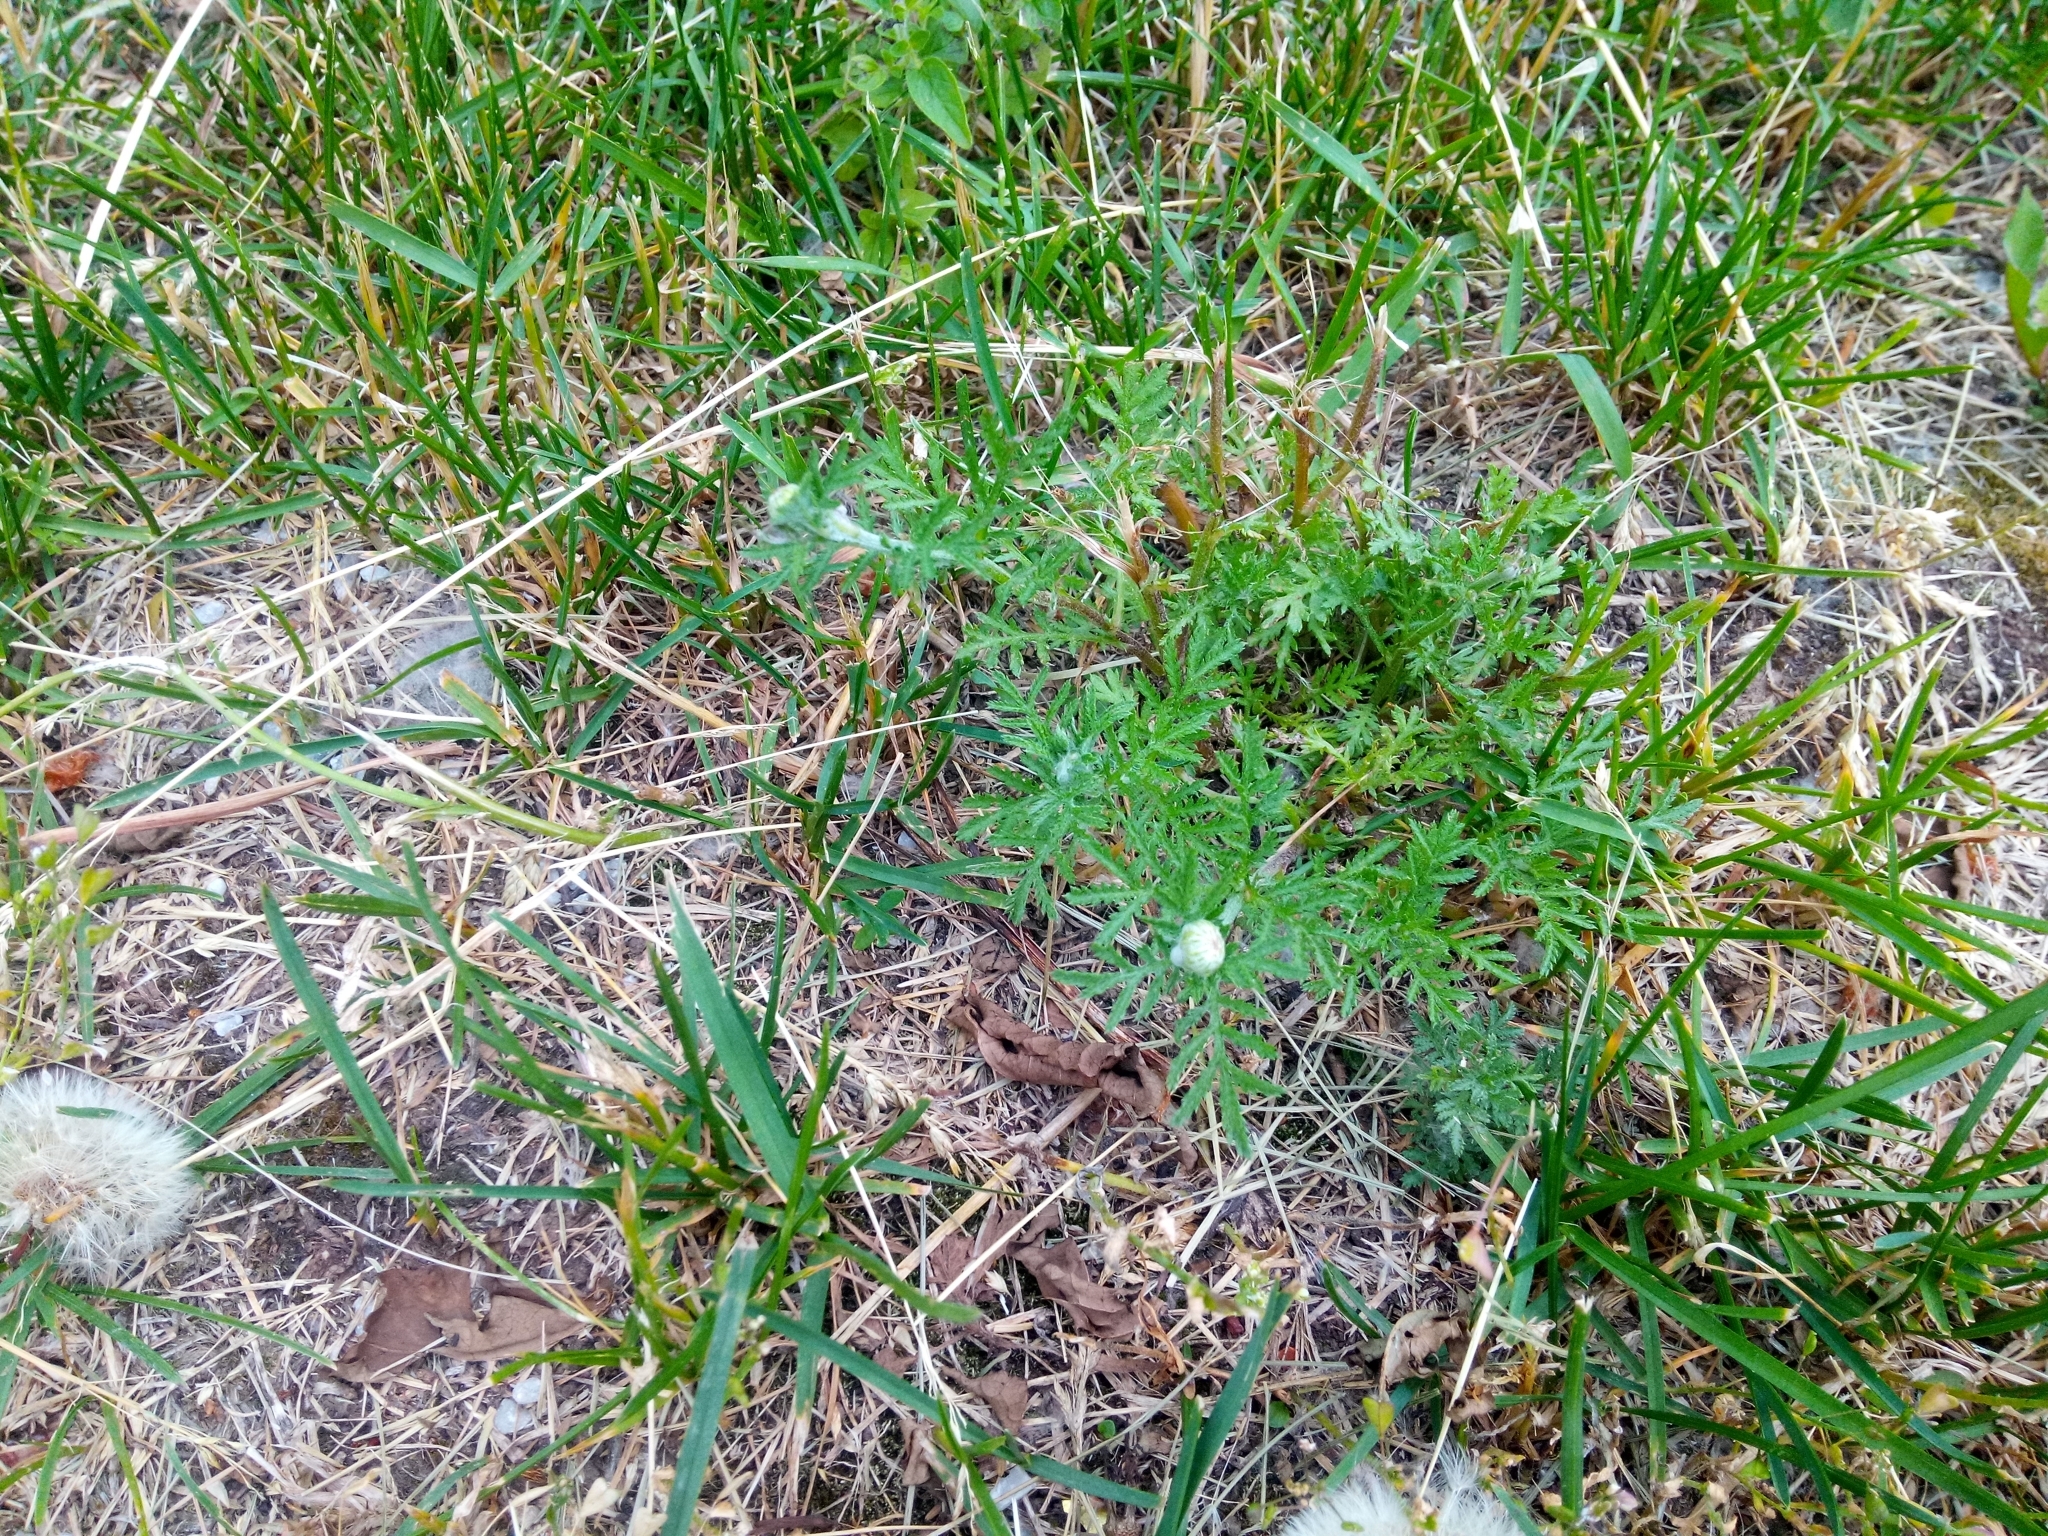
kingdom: Plantae
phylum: Tracheophyta
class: Magnoliopsida
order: Asterales
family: Asteraceae
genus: Cota
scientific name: Cota tinctoria
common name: Golden chamomile
